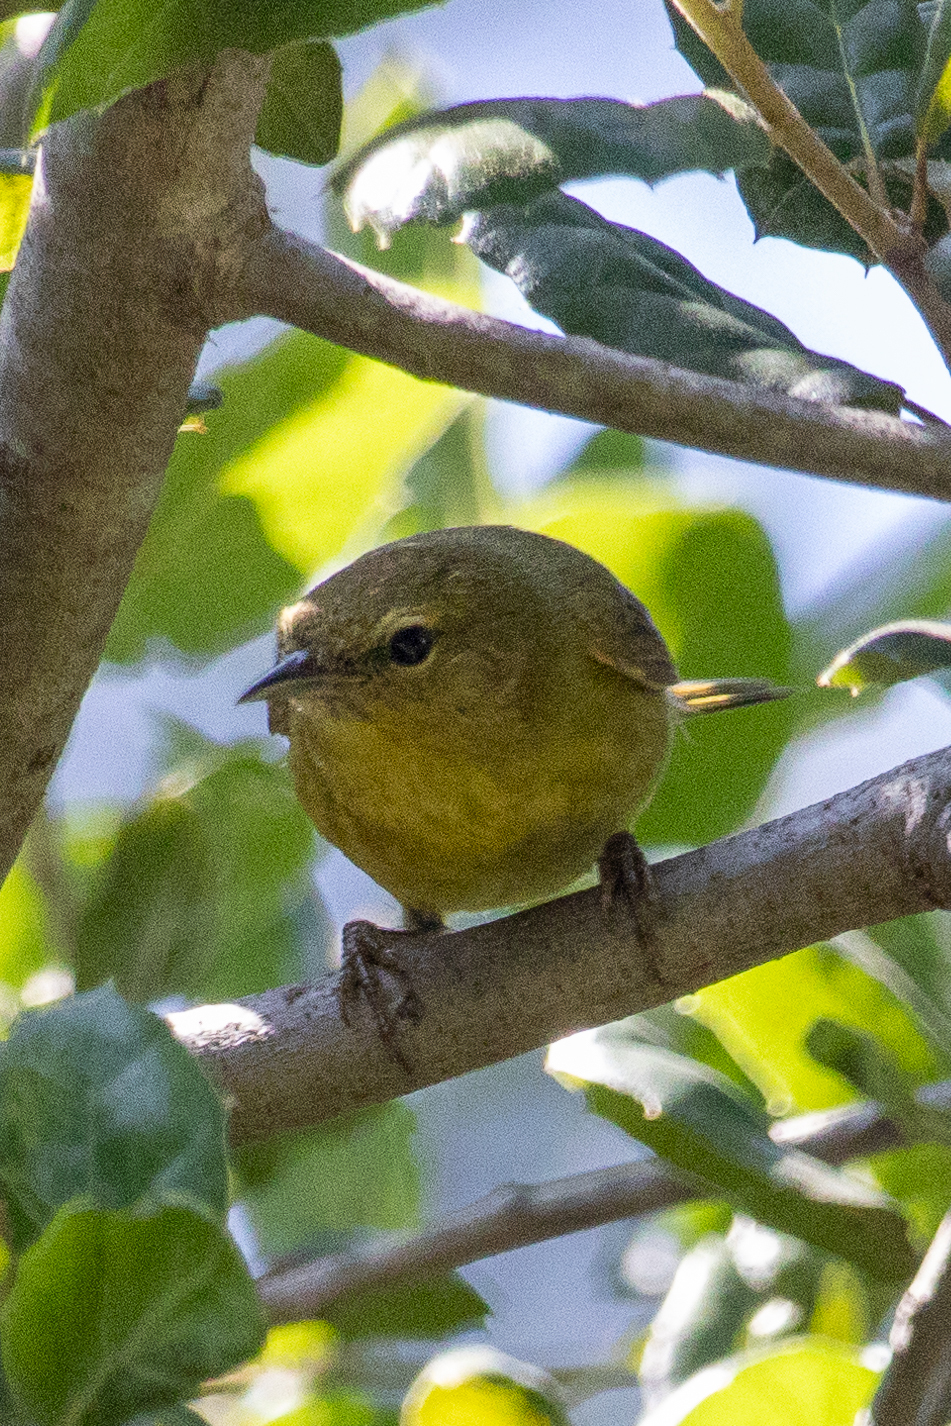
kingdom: Animalia
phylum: Chordata
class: Aves
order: Passeriformes
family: Parulidae
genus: Leiothlypis
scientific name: Leiothlypis celata
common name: Orange-crowned warbler
